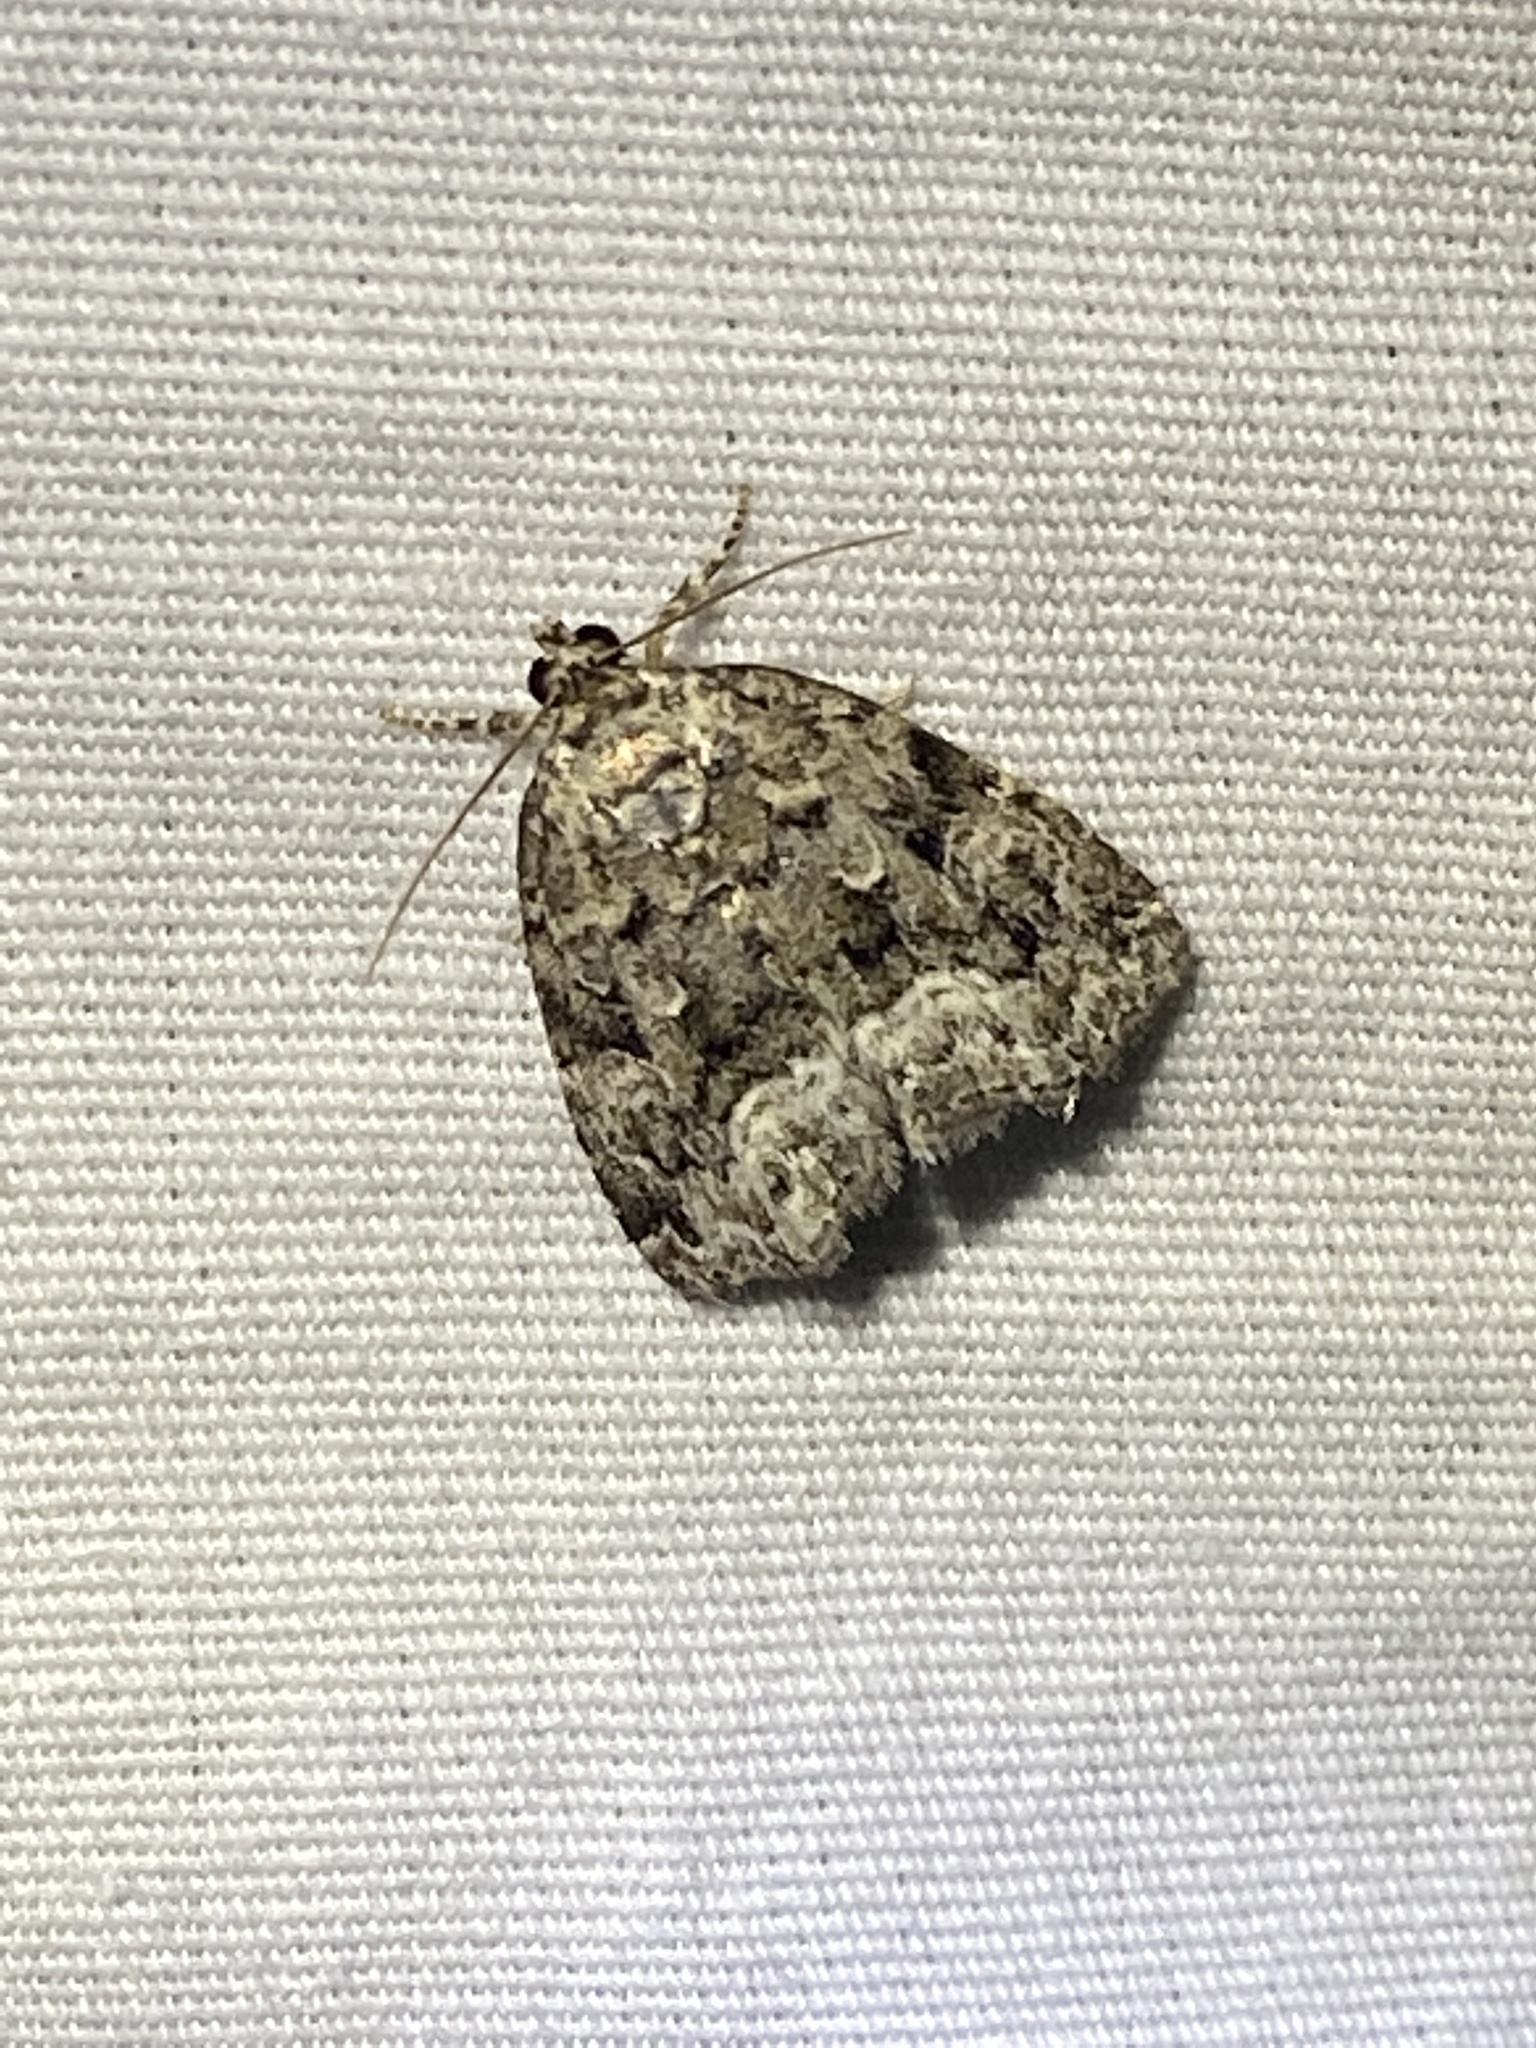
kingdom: Animalia
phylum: Arthropoda
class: Insecta
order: Lepidoptera
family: Noctuidae
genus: Protodeltote
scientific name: Protodeltote muscosula
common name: Large mossy glyph
